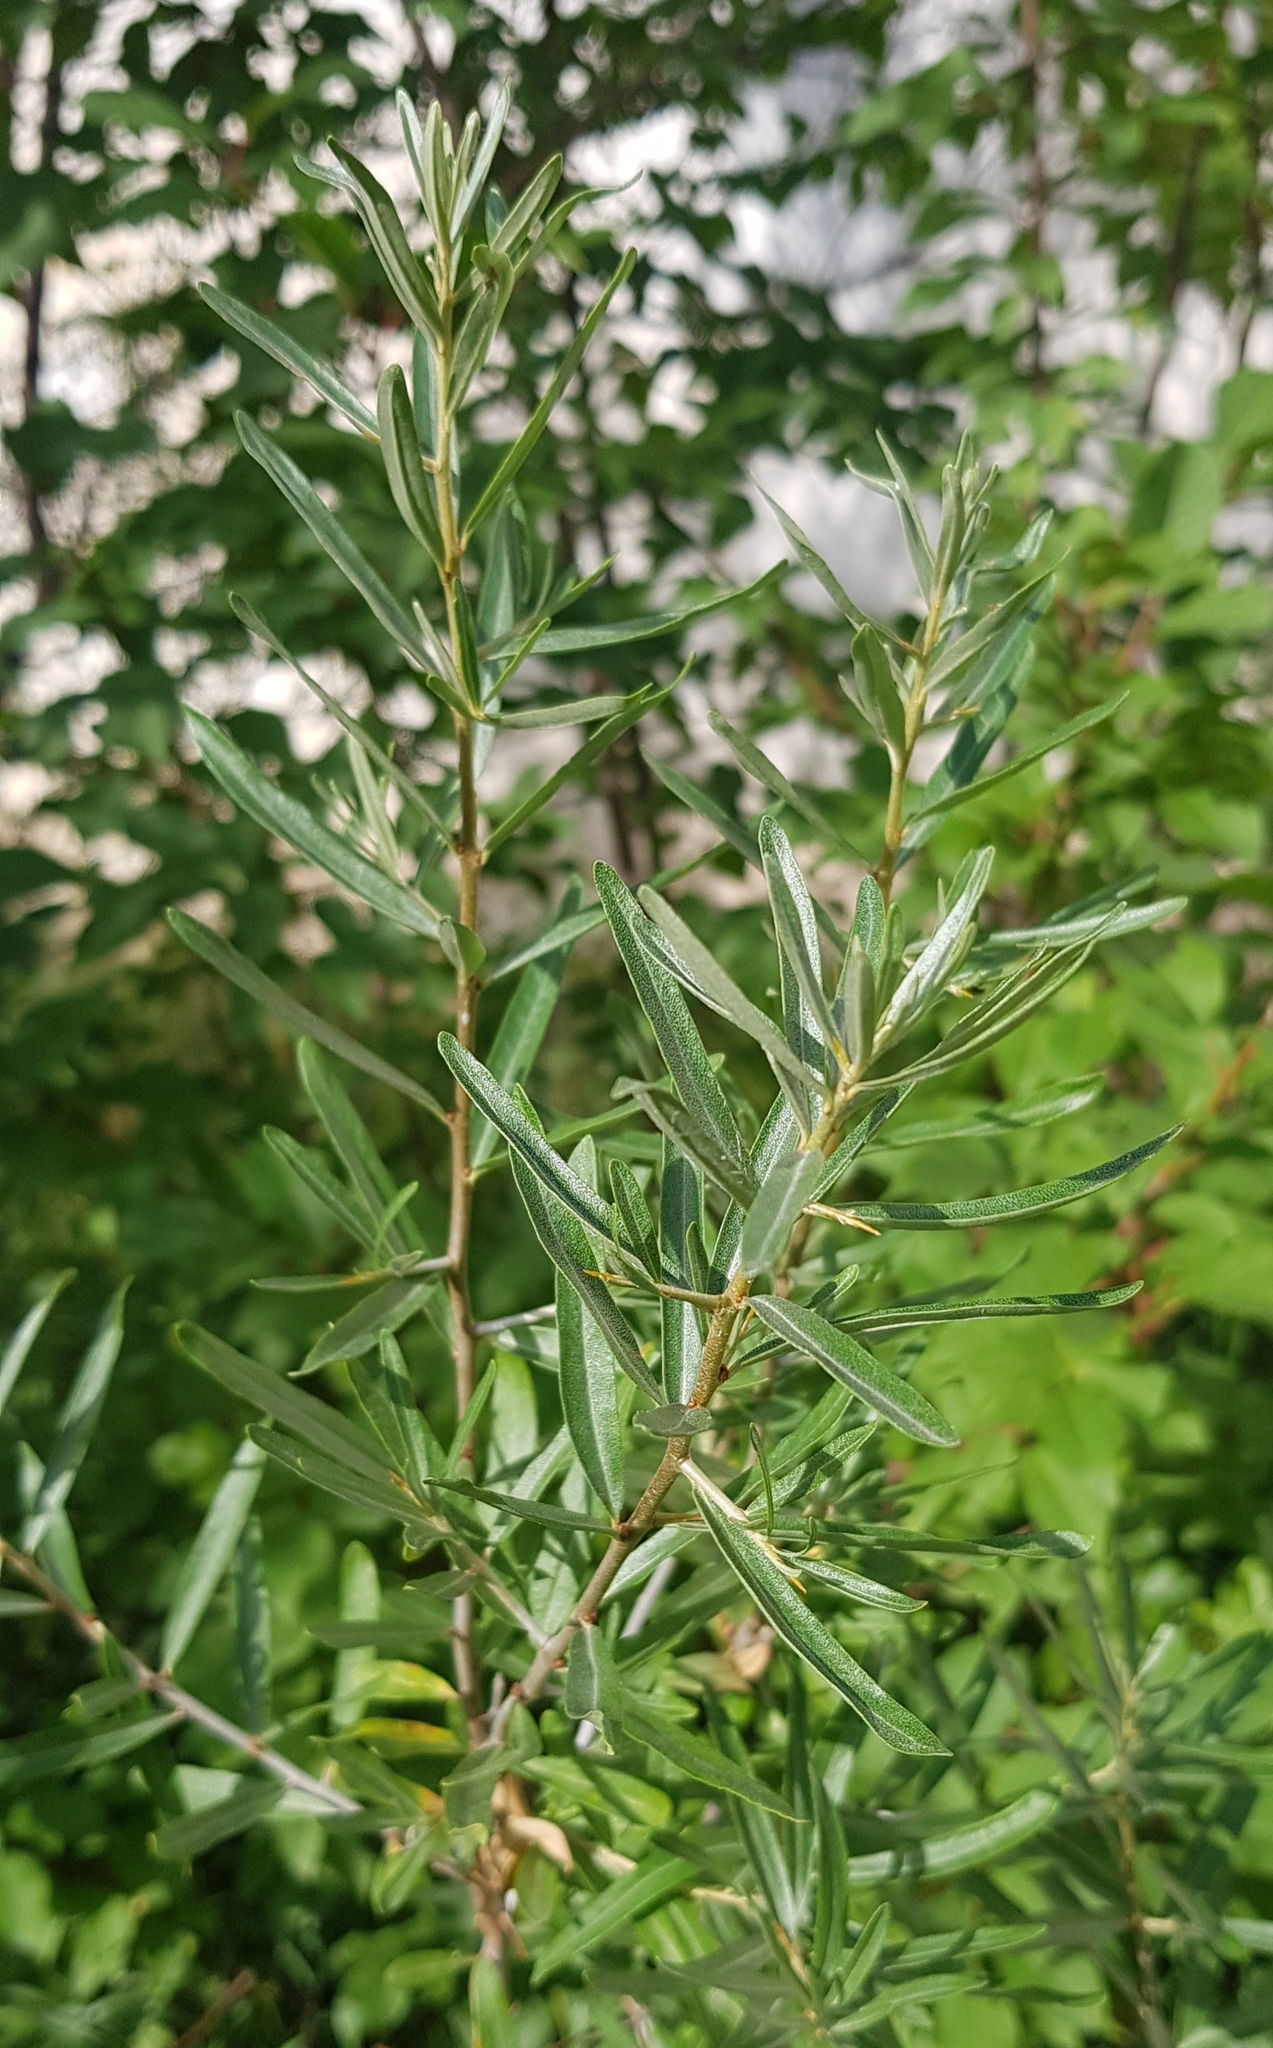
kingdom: Plantae
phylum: Tracheophyta
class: Magnoliopsida
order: Rosales
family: Elaeagnaceae
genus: Hippophae
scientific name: Hippophae rhamnoides
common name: Sea-buckthorn
